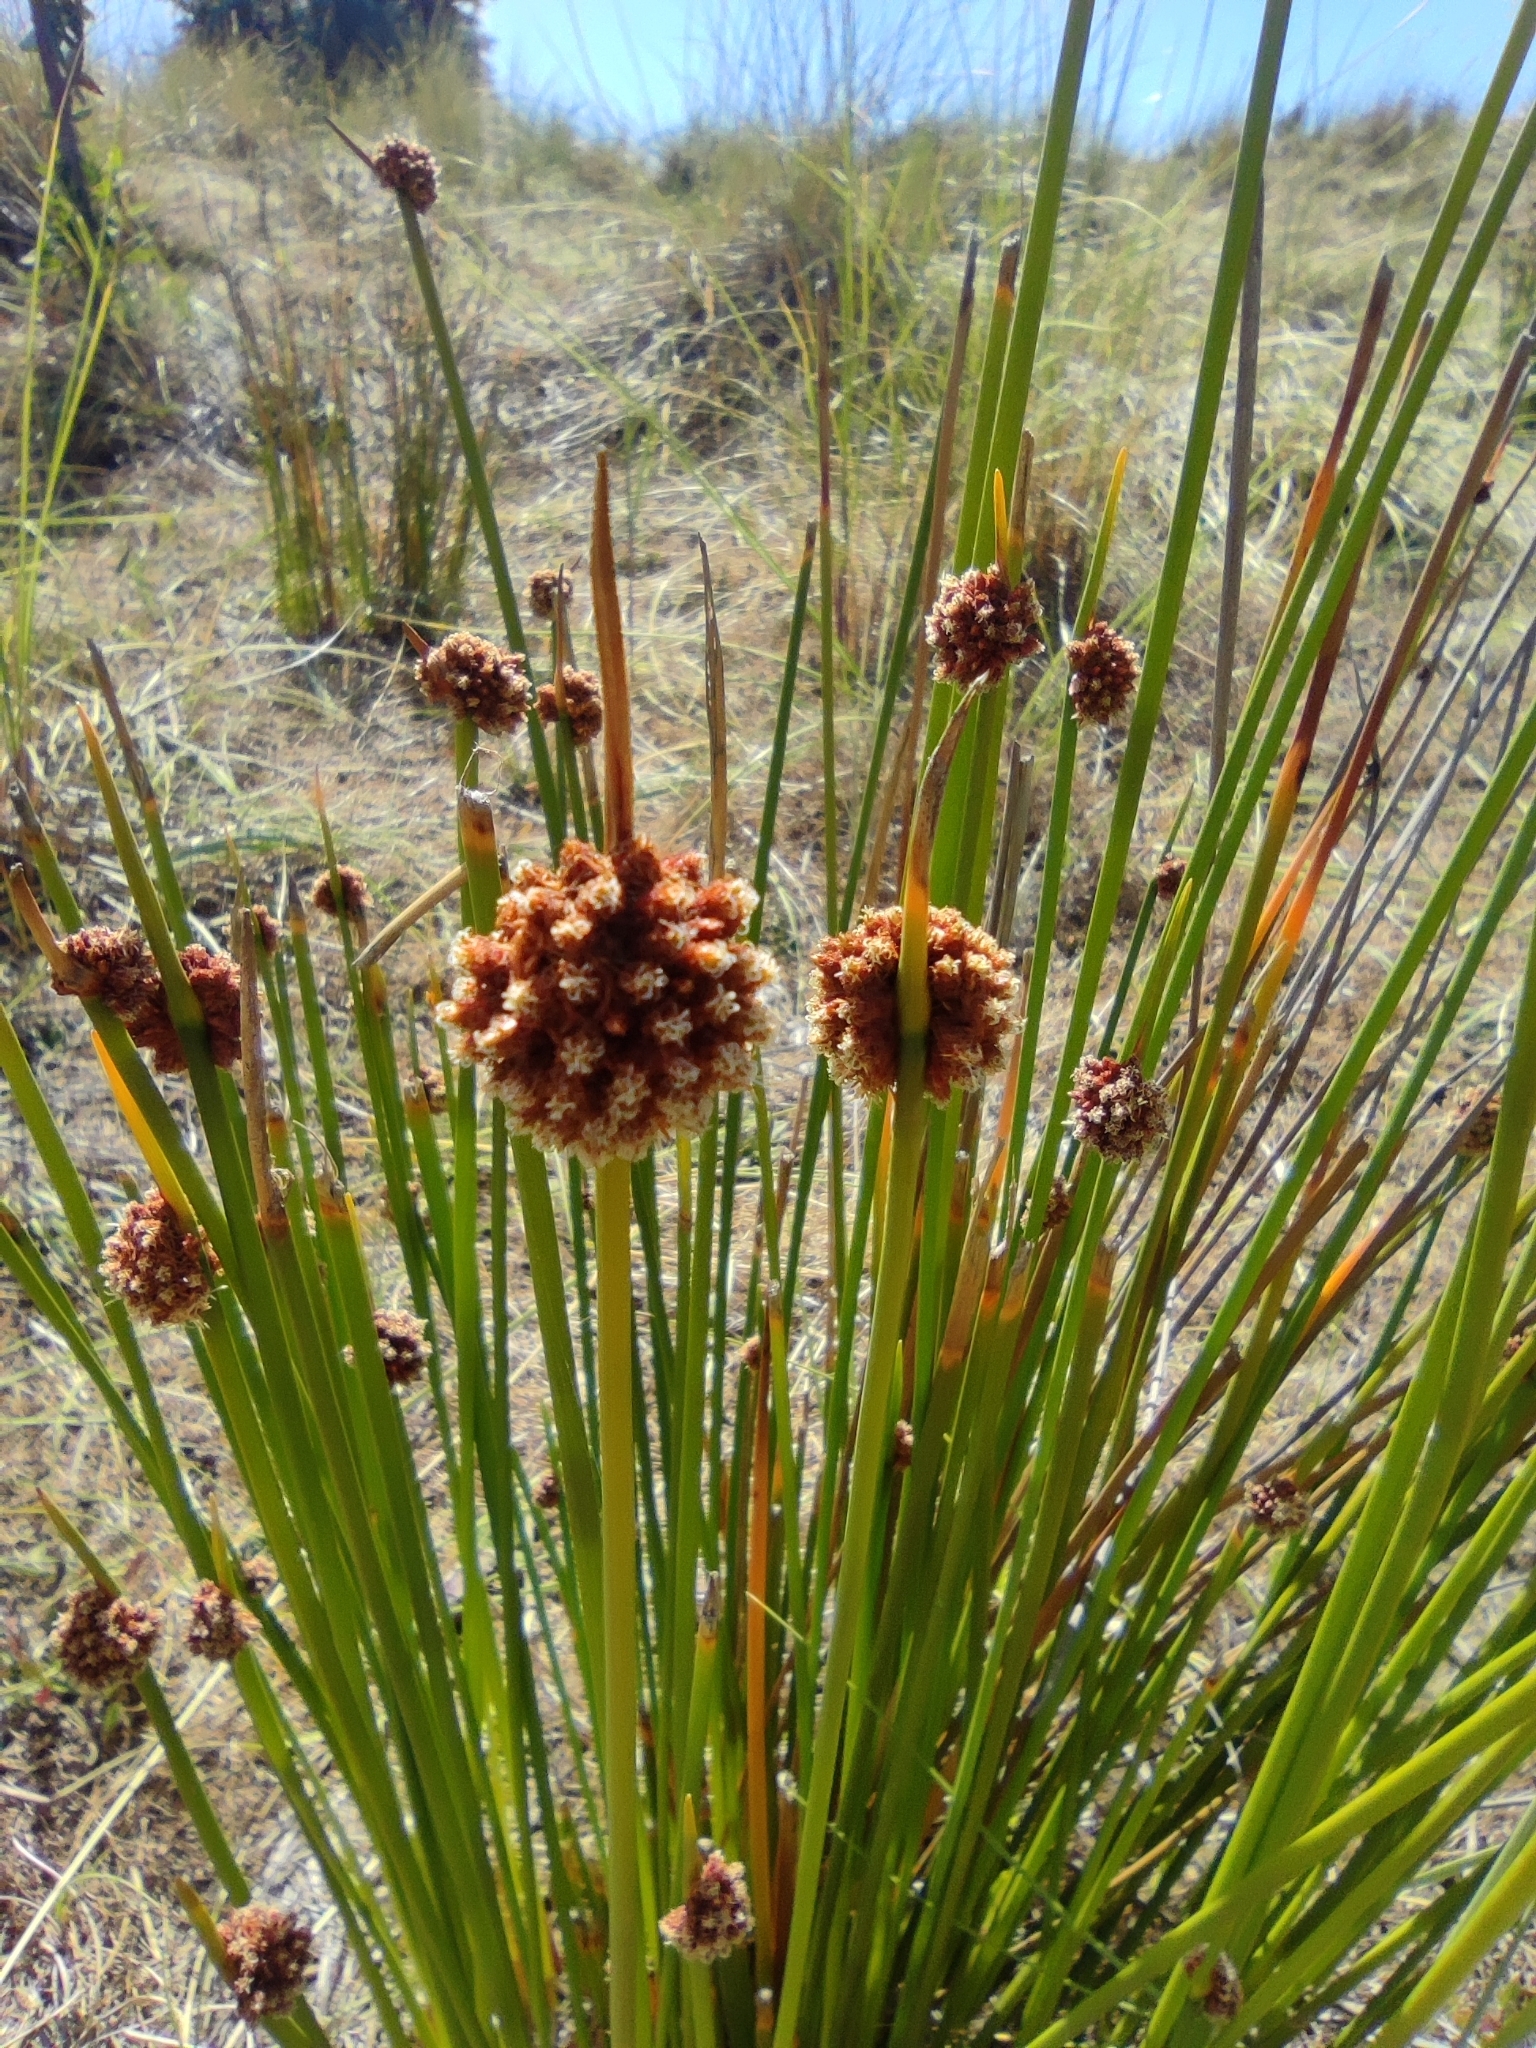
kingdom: Plantae
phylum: Tracheophyta
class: Liliopsida
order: Poales
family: Cyperaceae
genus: Ficinia
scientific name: Ficinia nodosa
